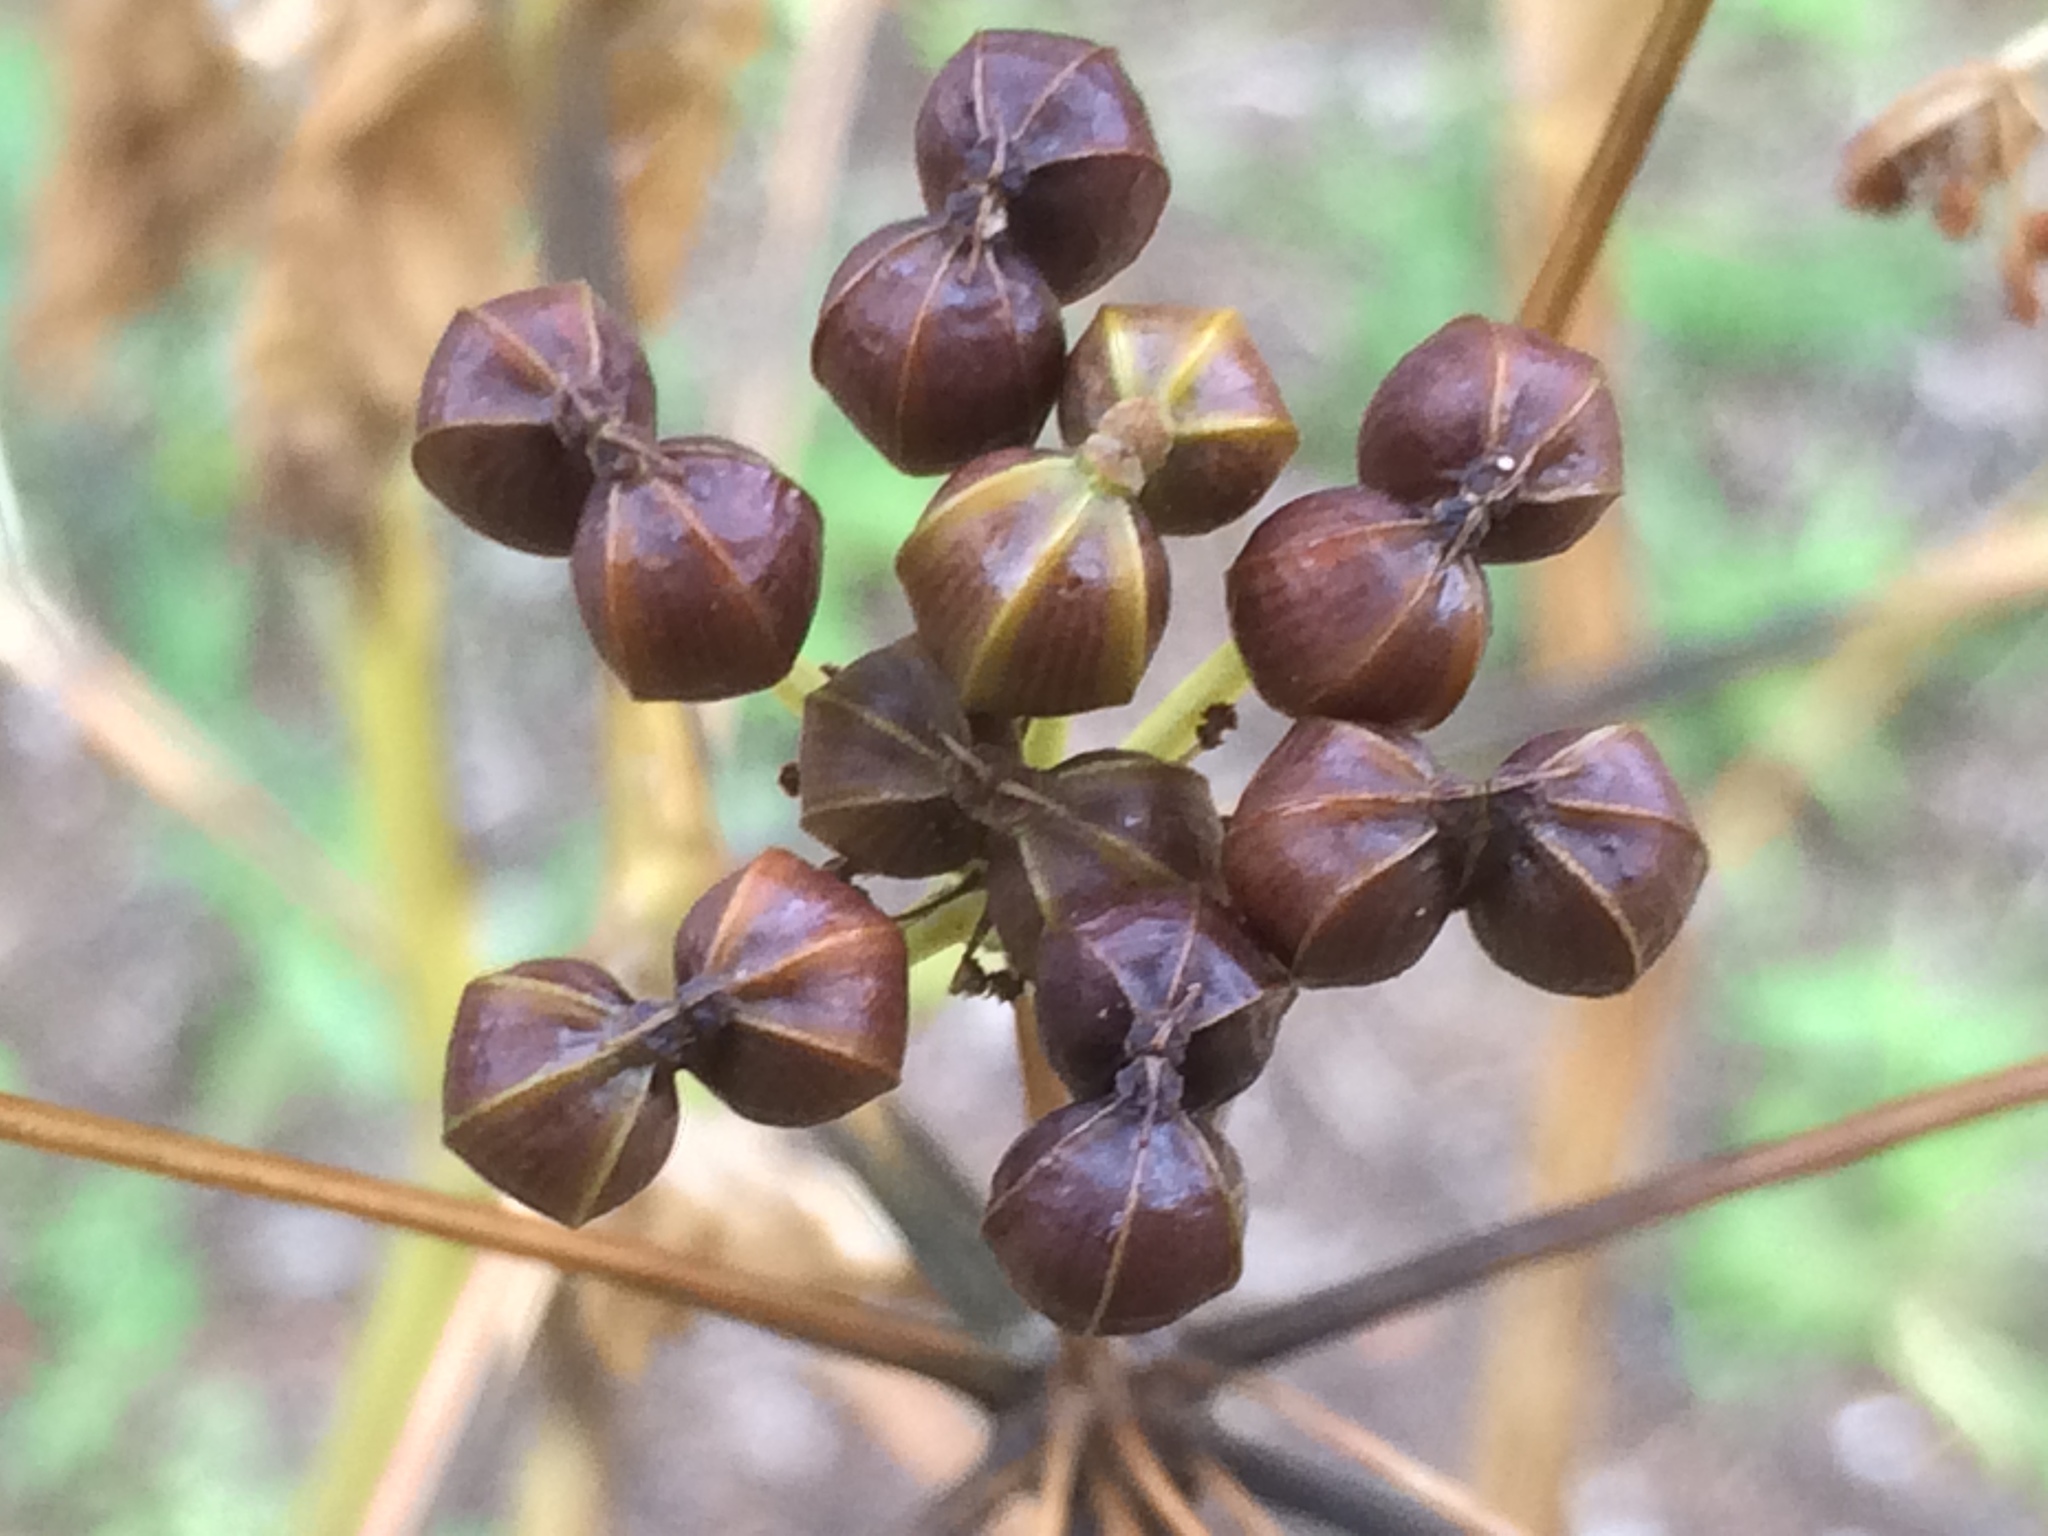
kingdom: Plantae
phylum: Tracheophyta
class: Magnoliopsida
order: Apiales
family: Apiaceae
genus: Smyrnium
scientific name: Smyrnium olusatrum
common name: Alexanders
